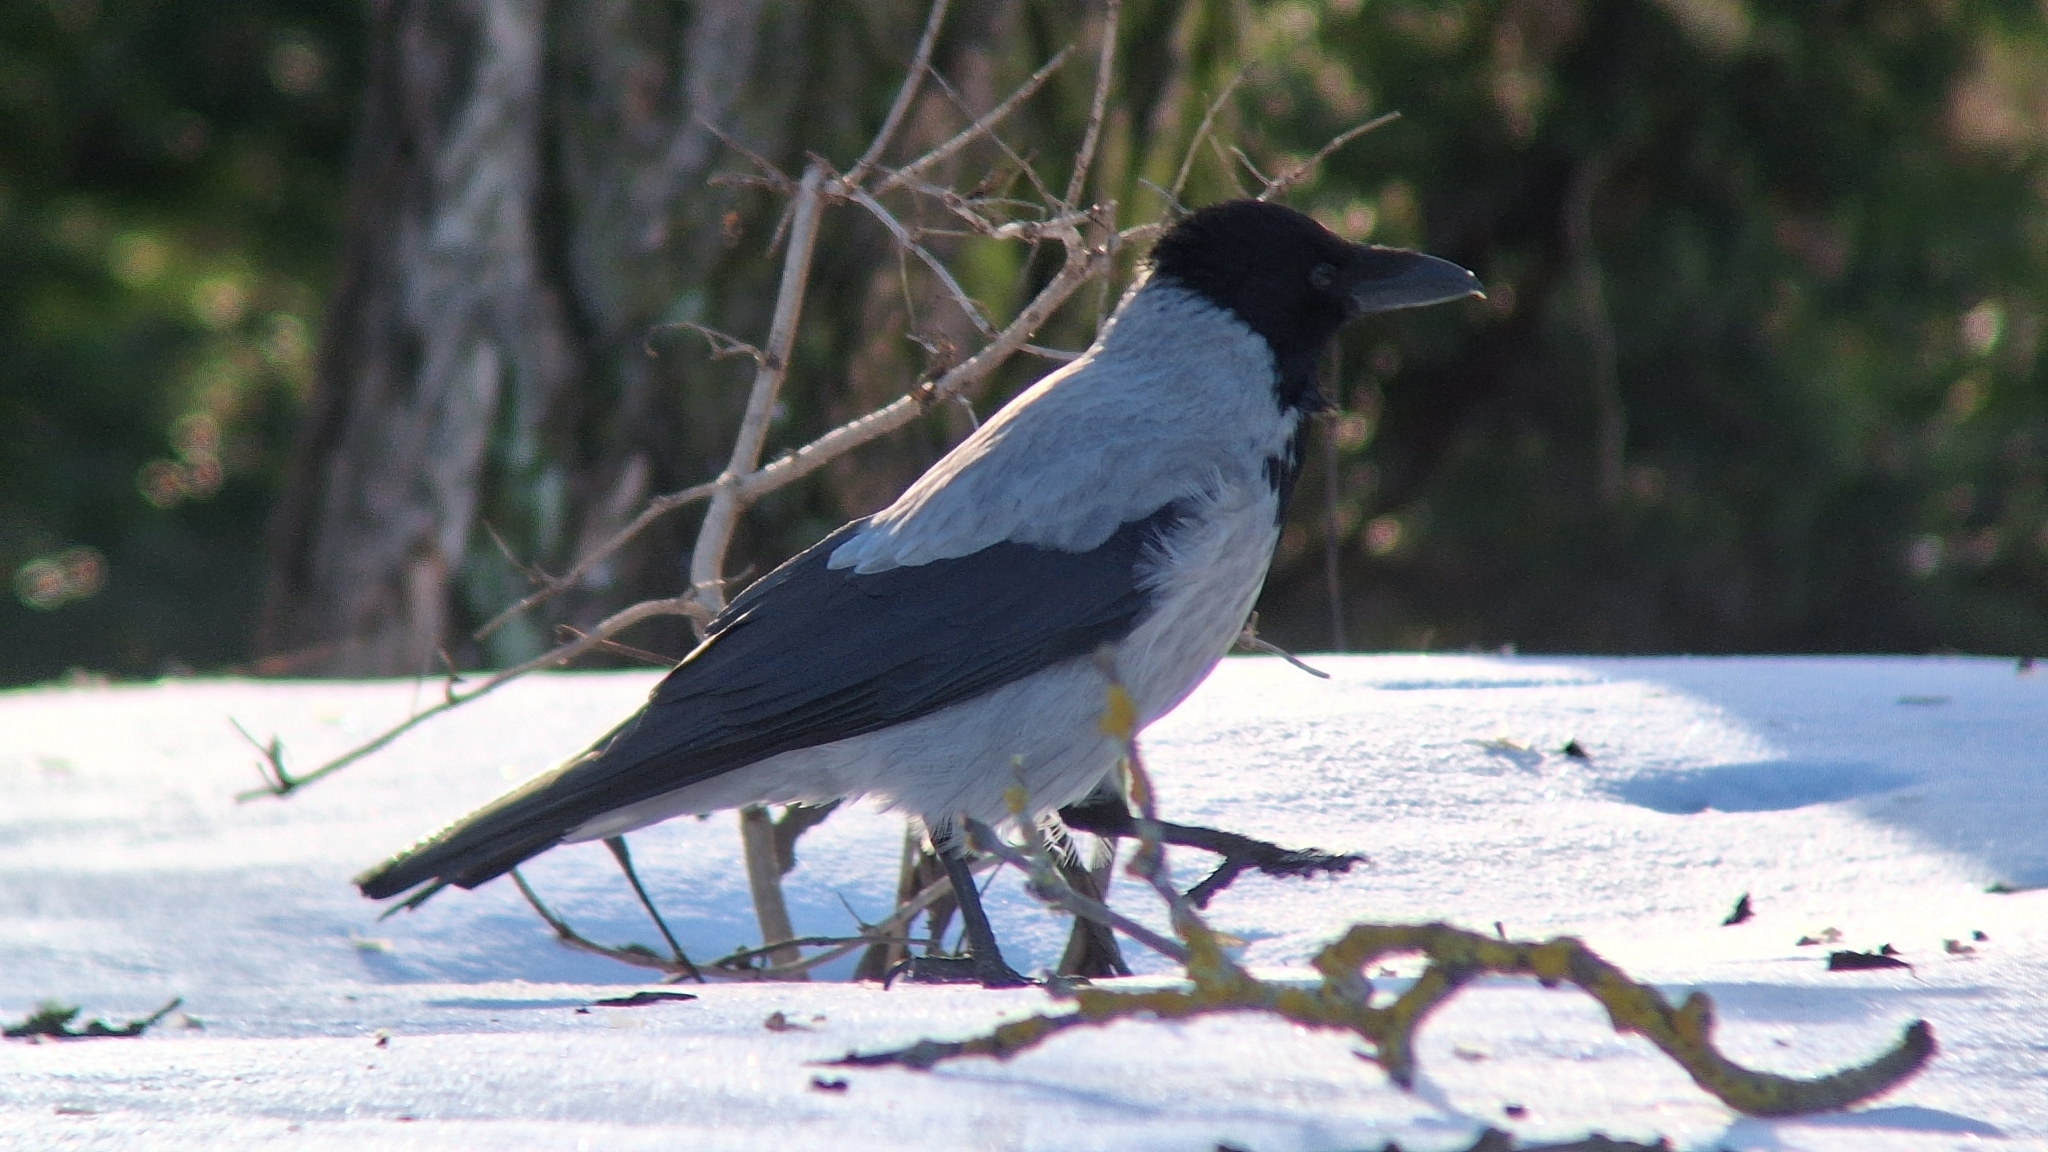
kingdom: Animalia
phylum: Chordata
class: Aves
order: Passeriformes
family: Corvidae
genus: Corvus
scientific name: Corvus cornix
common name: Hooded crow
